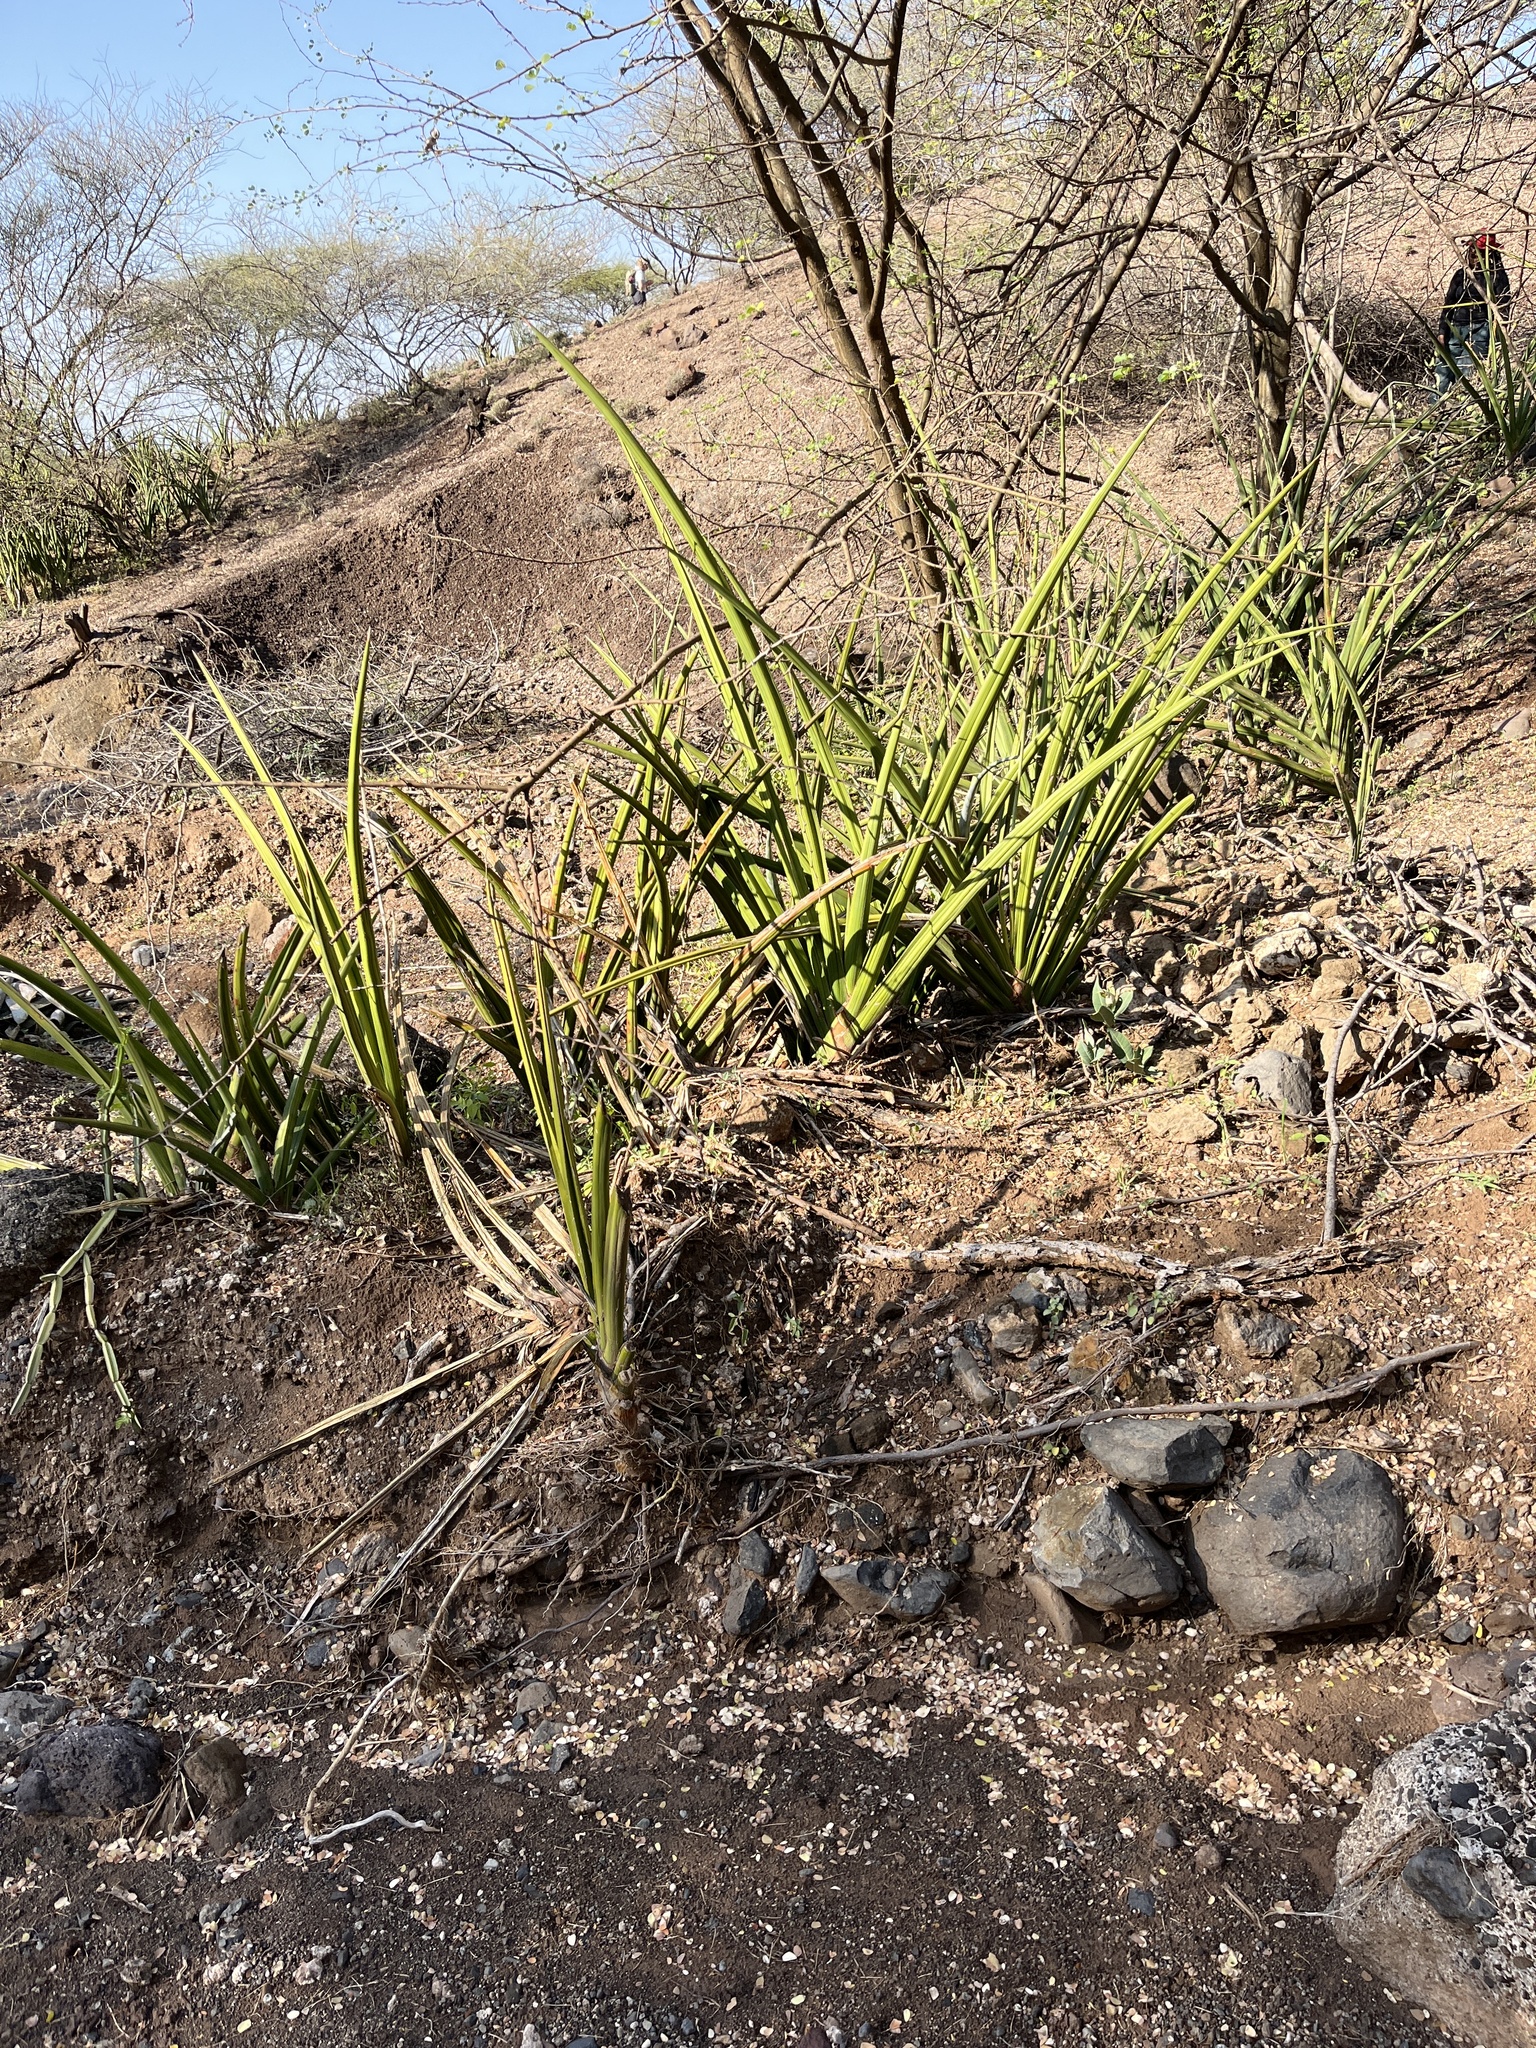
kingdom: Plantae
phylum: Tracheophyta
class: Liliopsida
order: Asparagales
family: Asparagaceae
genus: Dracaena
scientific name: Dracaena angolensis
